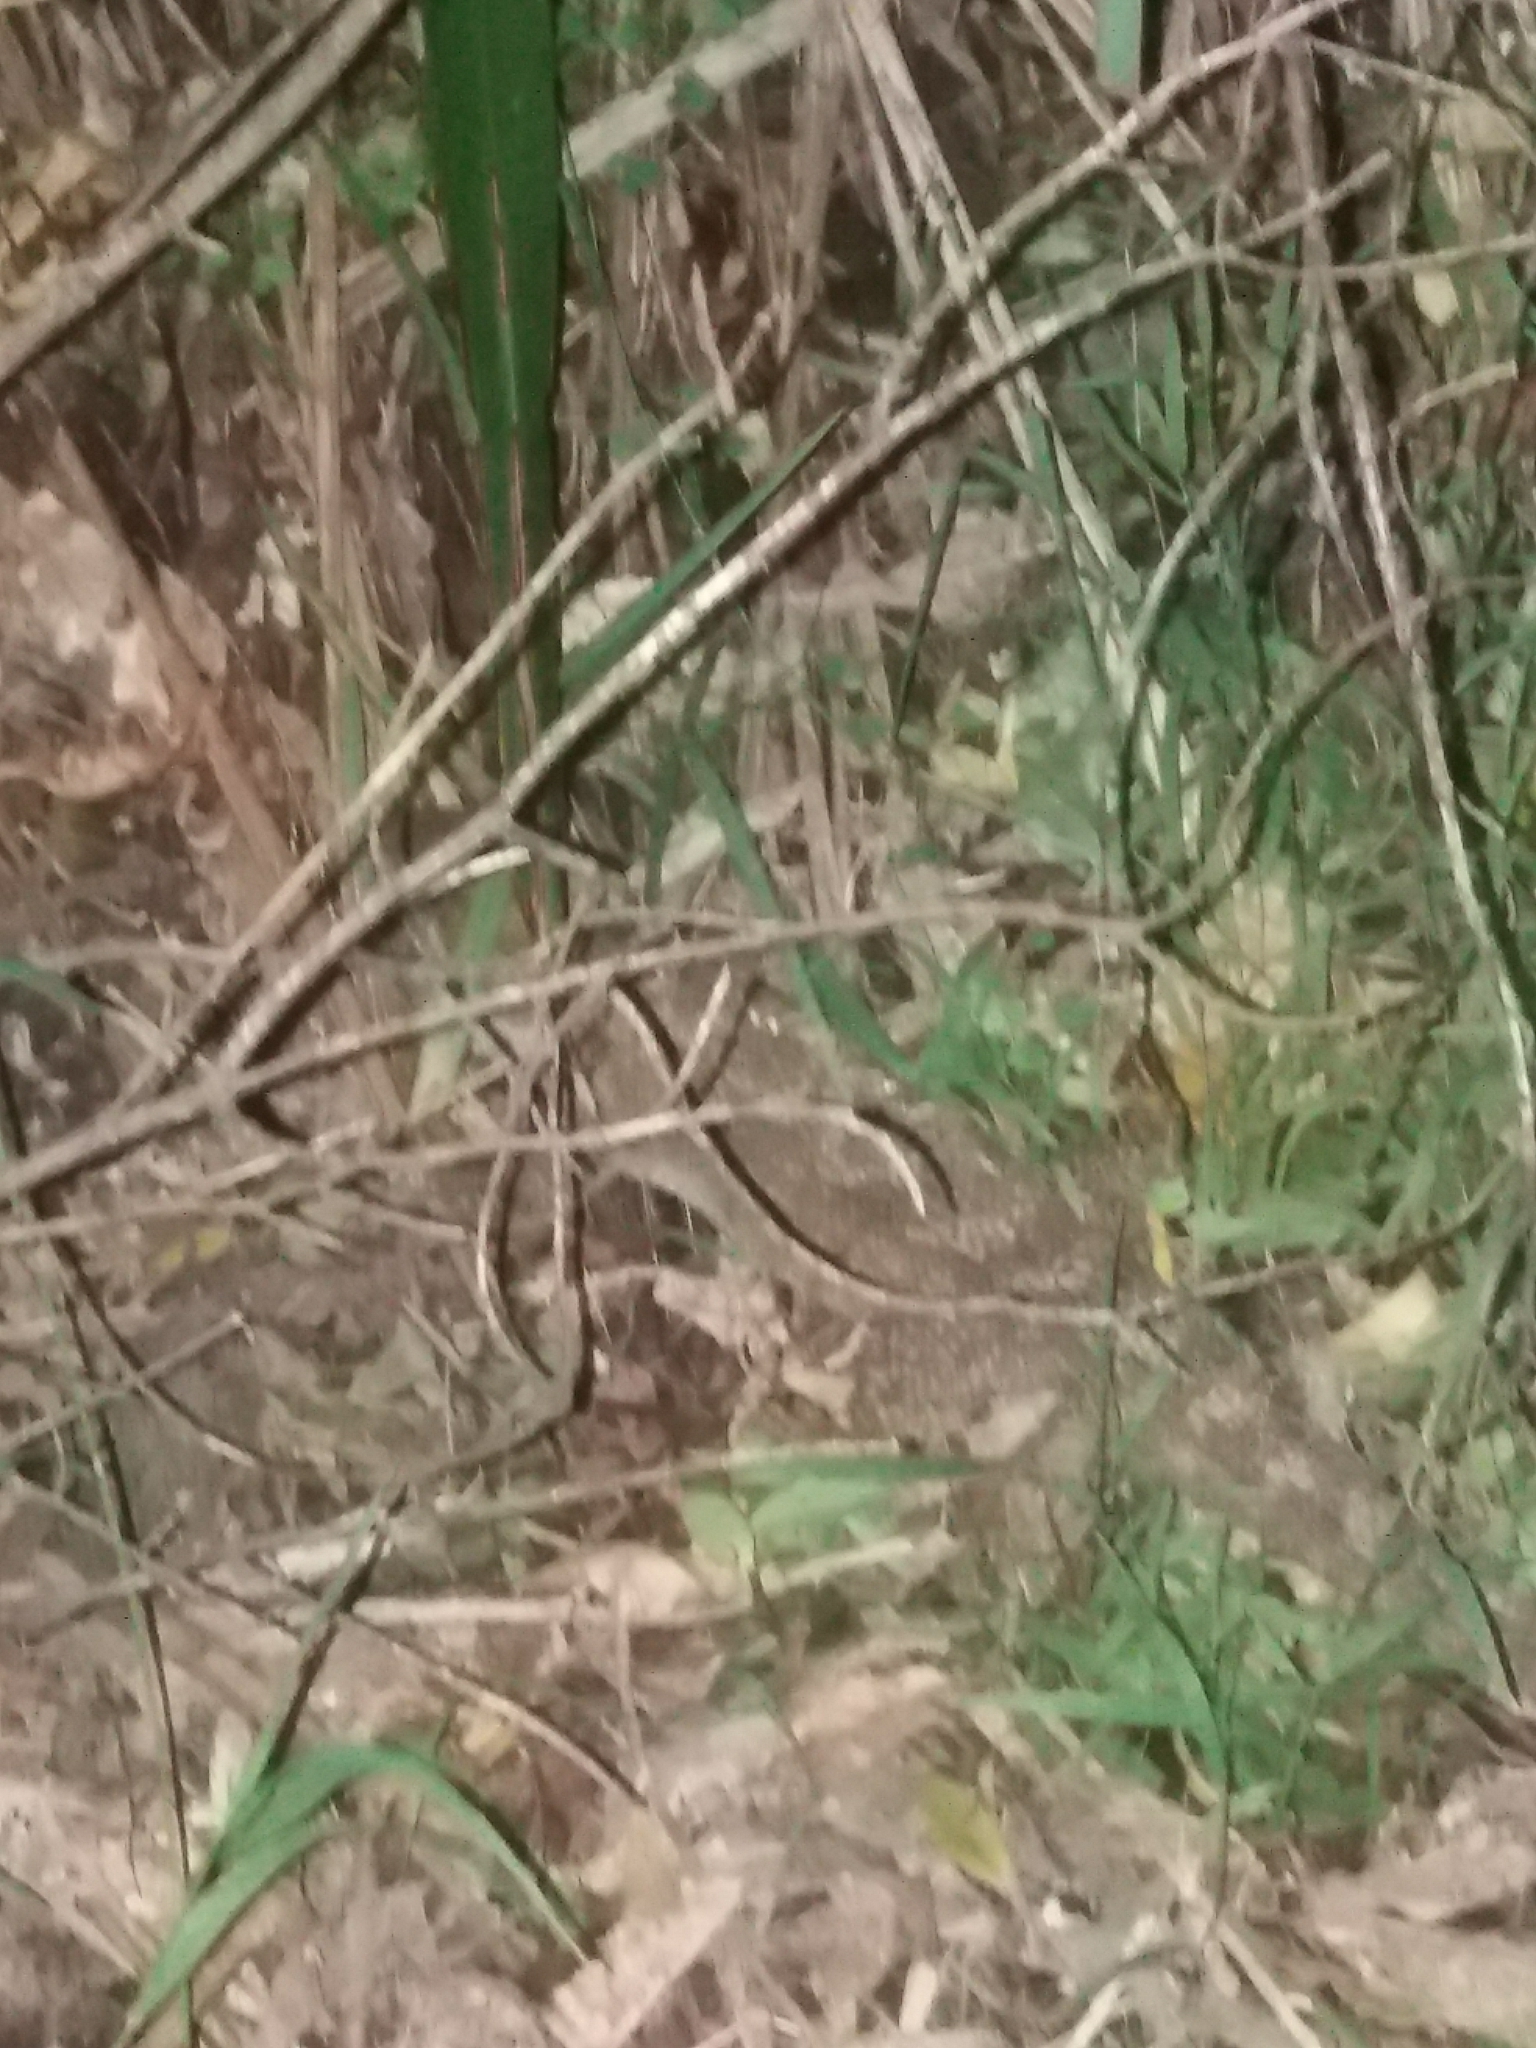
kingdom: Animalia
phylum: Chordata
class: Sphenodontia
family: Sphenodontidae
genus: Sphenodon
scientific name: Sphenodon punctatus
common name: Tuatara
